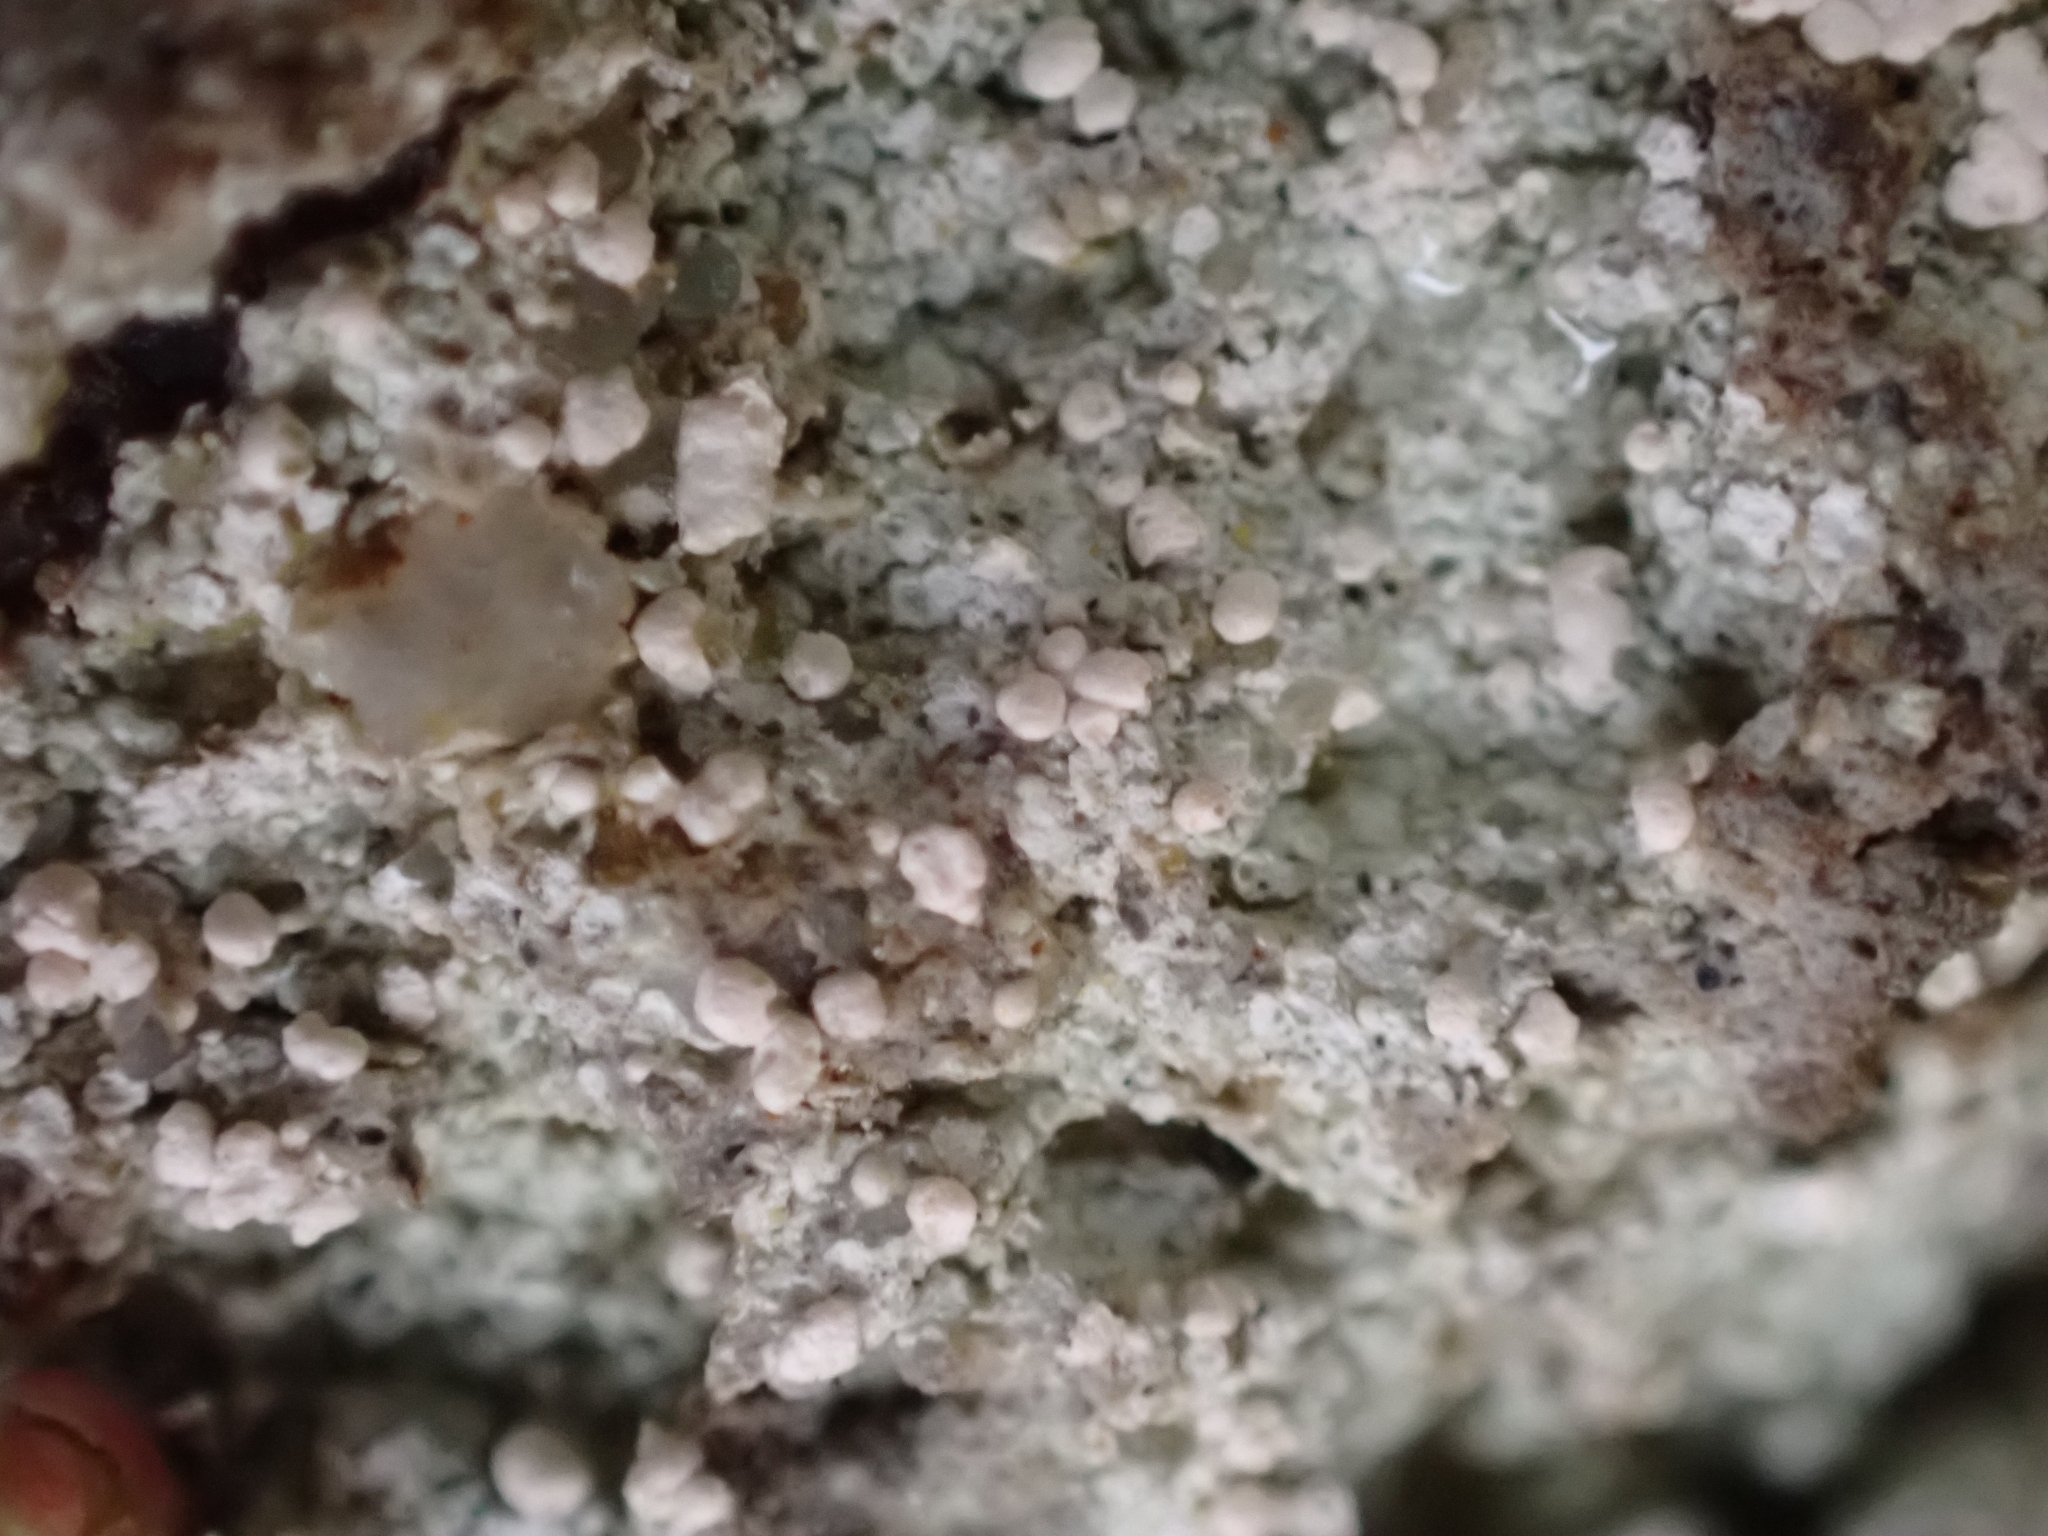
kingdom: Fungi
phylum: Ascomycota
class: Lecanoromycetes
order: Pertusariales
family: Icmadophilaceae
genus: Dibaeis
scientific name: Dibaeis baeomyces
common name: Pink earth lichen
